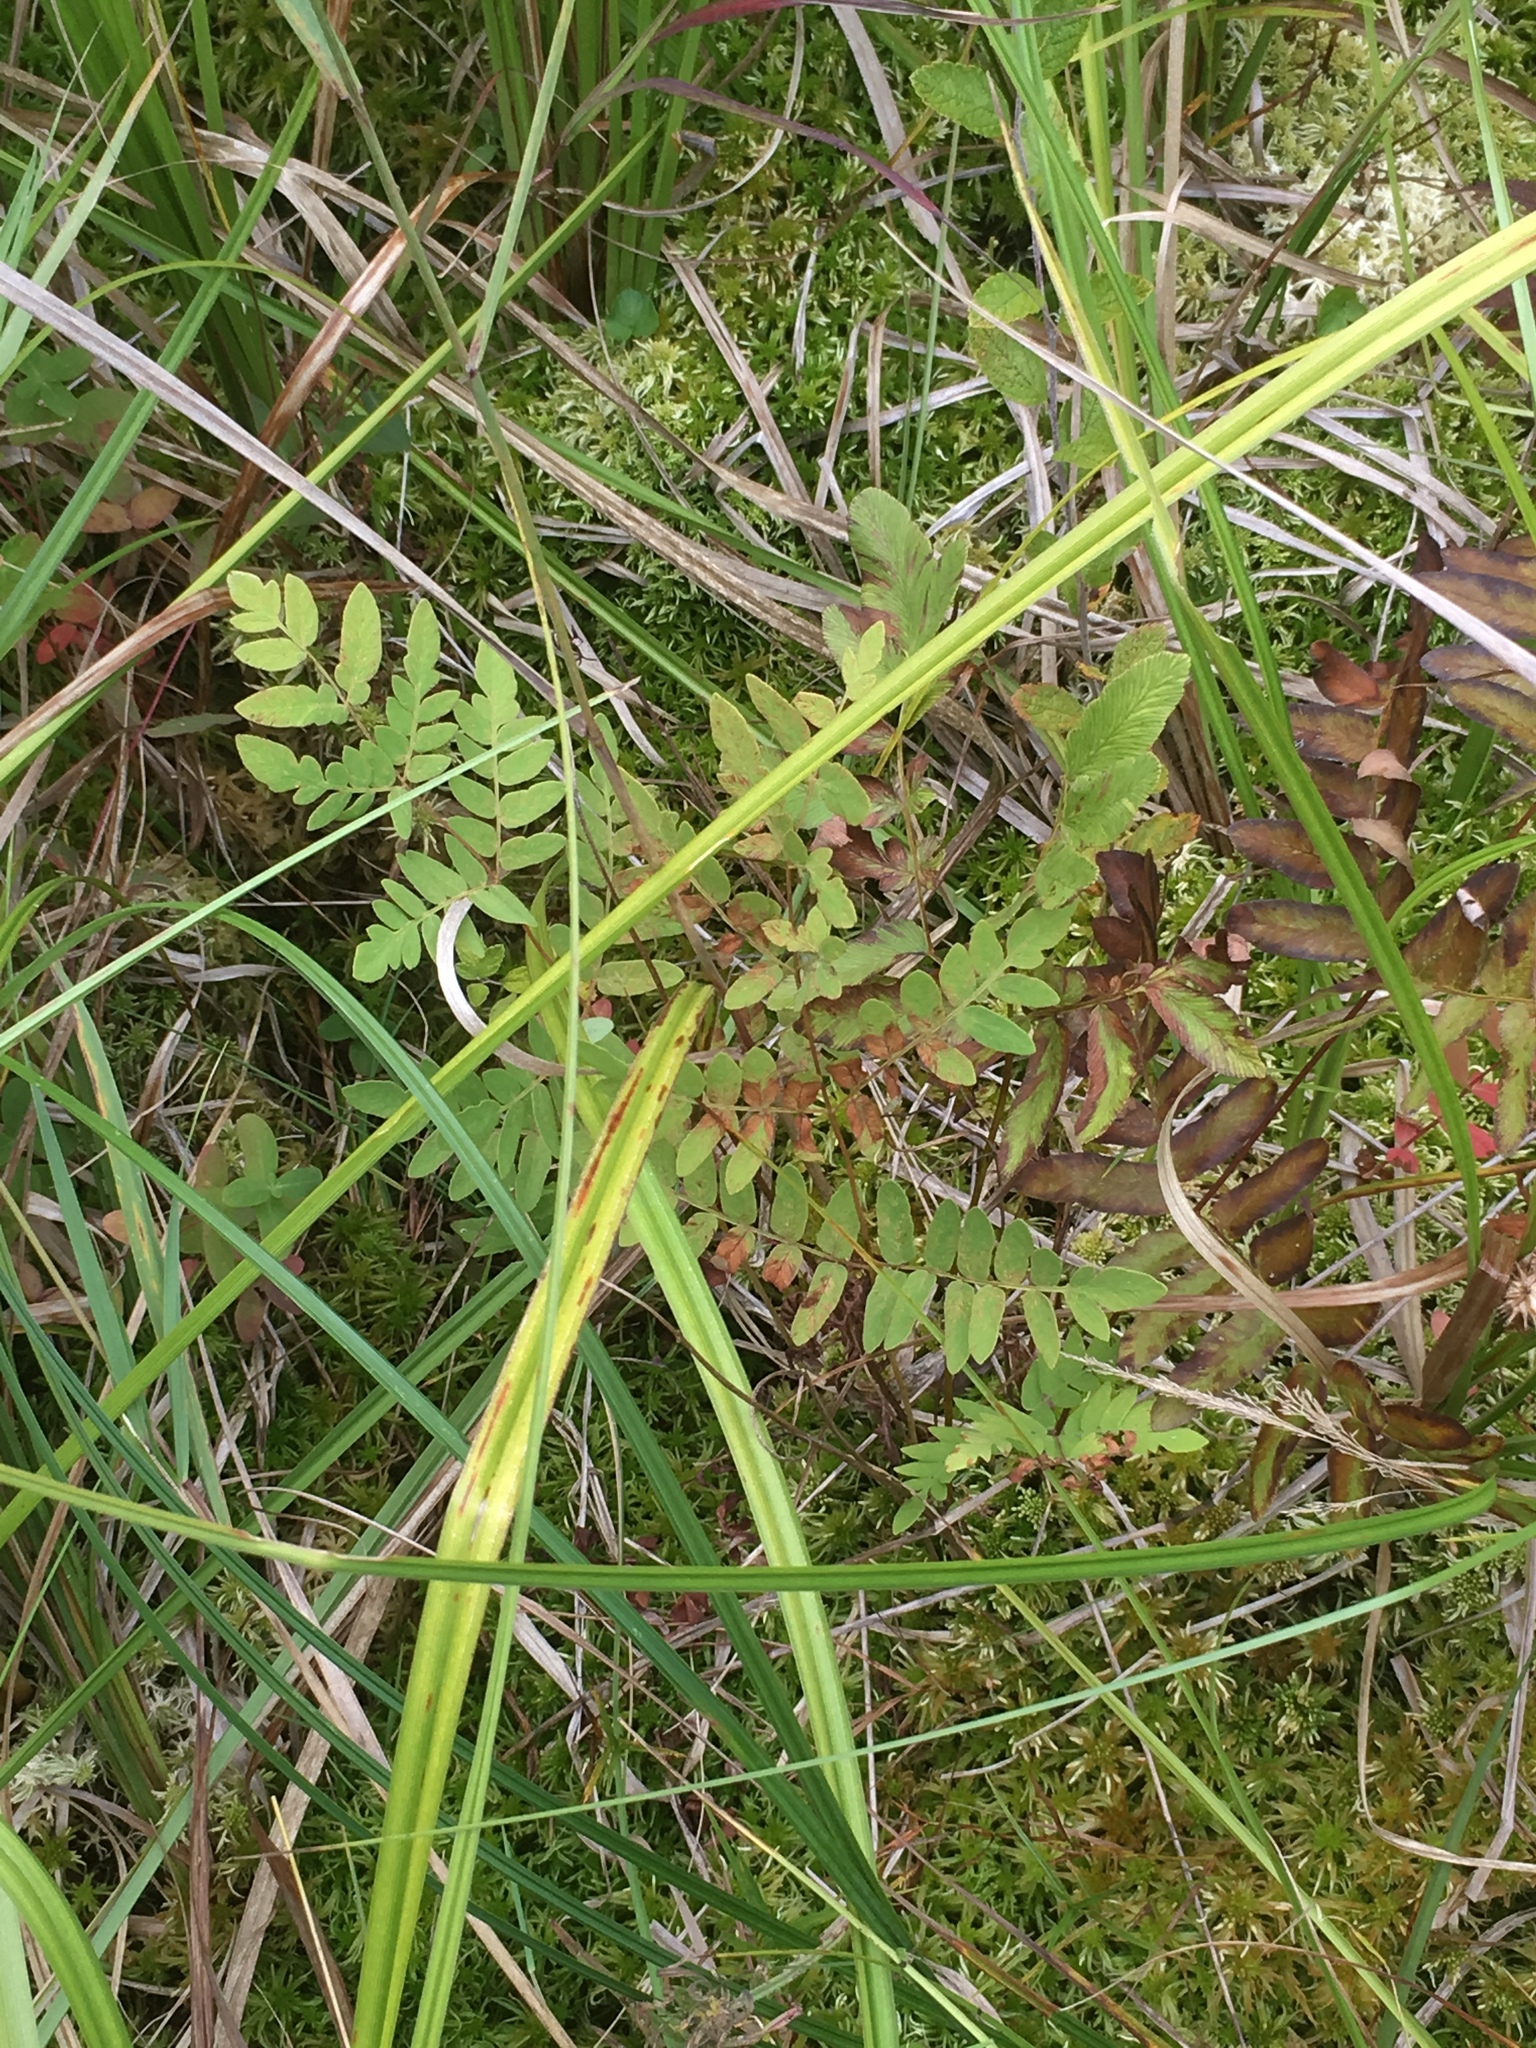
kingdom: Plantae
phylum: Tracheophyta
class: Polypodiopsida
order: Osmundales
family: Osmundaceae
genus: Osmunda
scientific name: Osmunda spectabilis
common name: American royal fern
